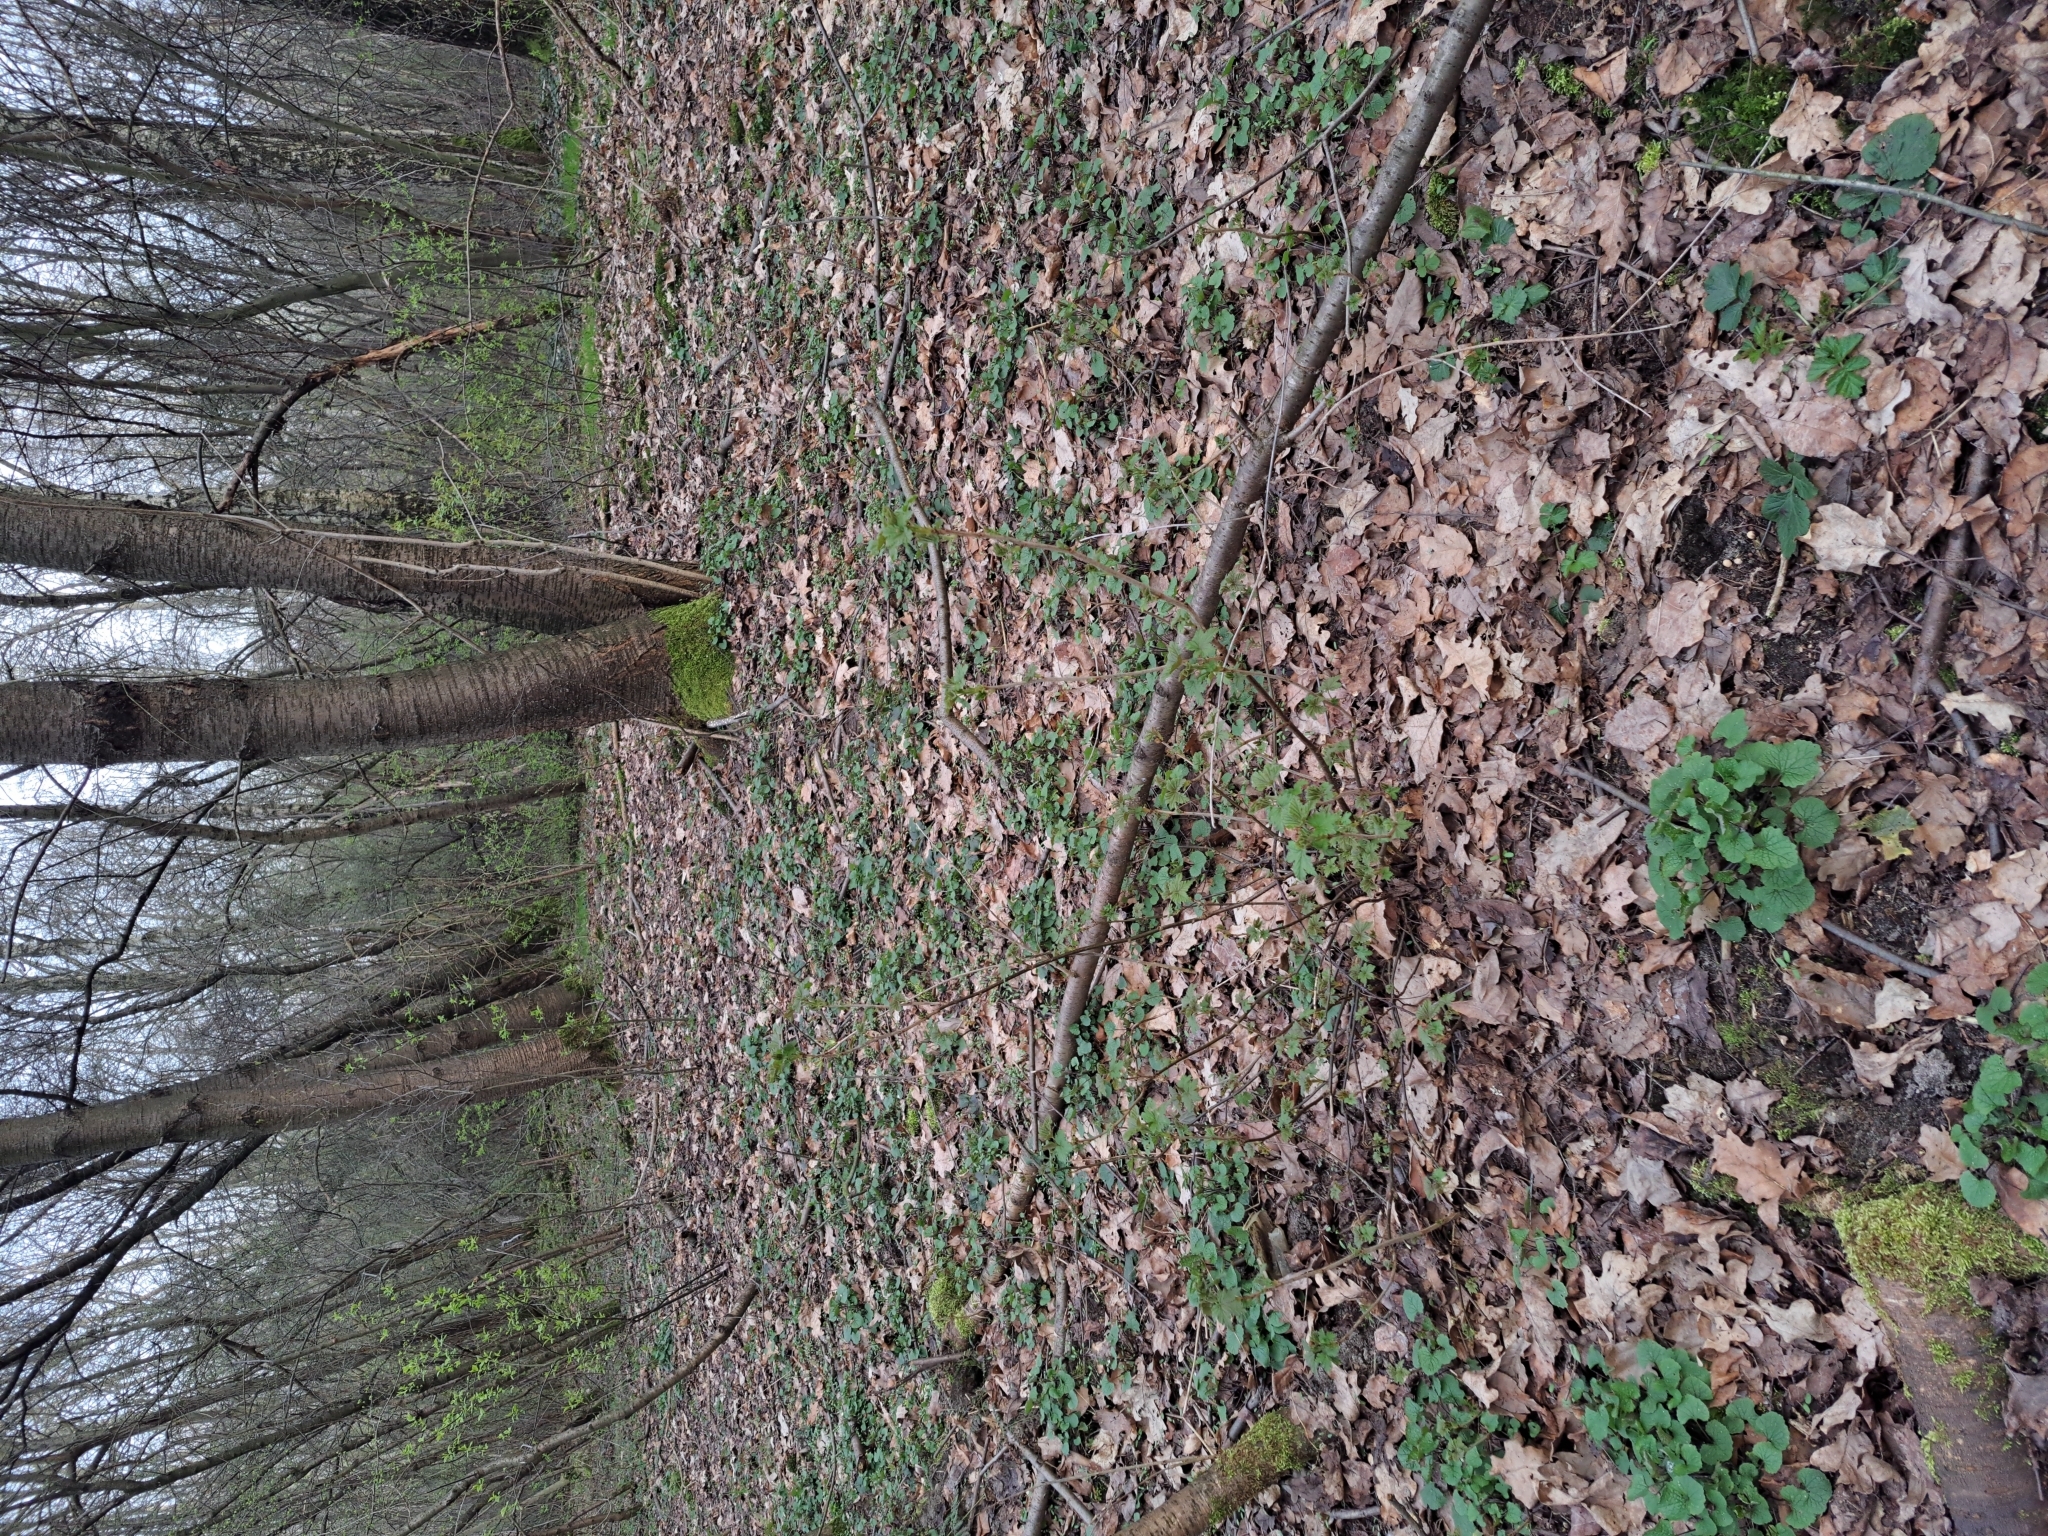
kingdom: Plantae
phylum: Tracheophyta
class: Magnoliopsida
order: Brassicales
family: Brassicaceae
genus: Alliaria
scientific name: Alliaria petiolata
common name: Garlic mustard
